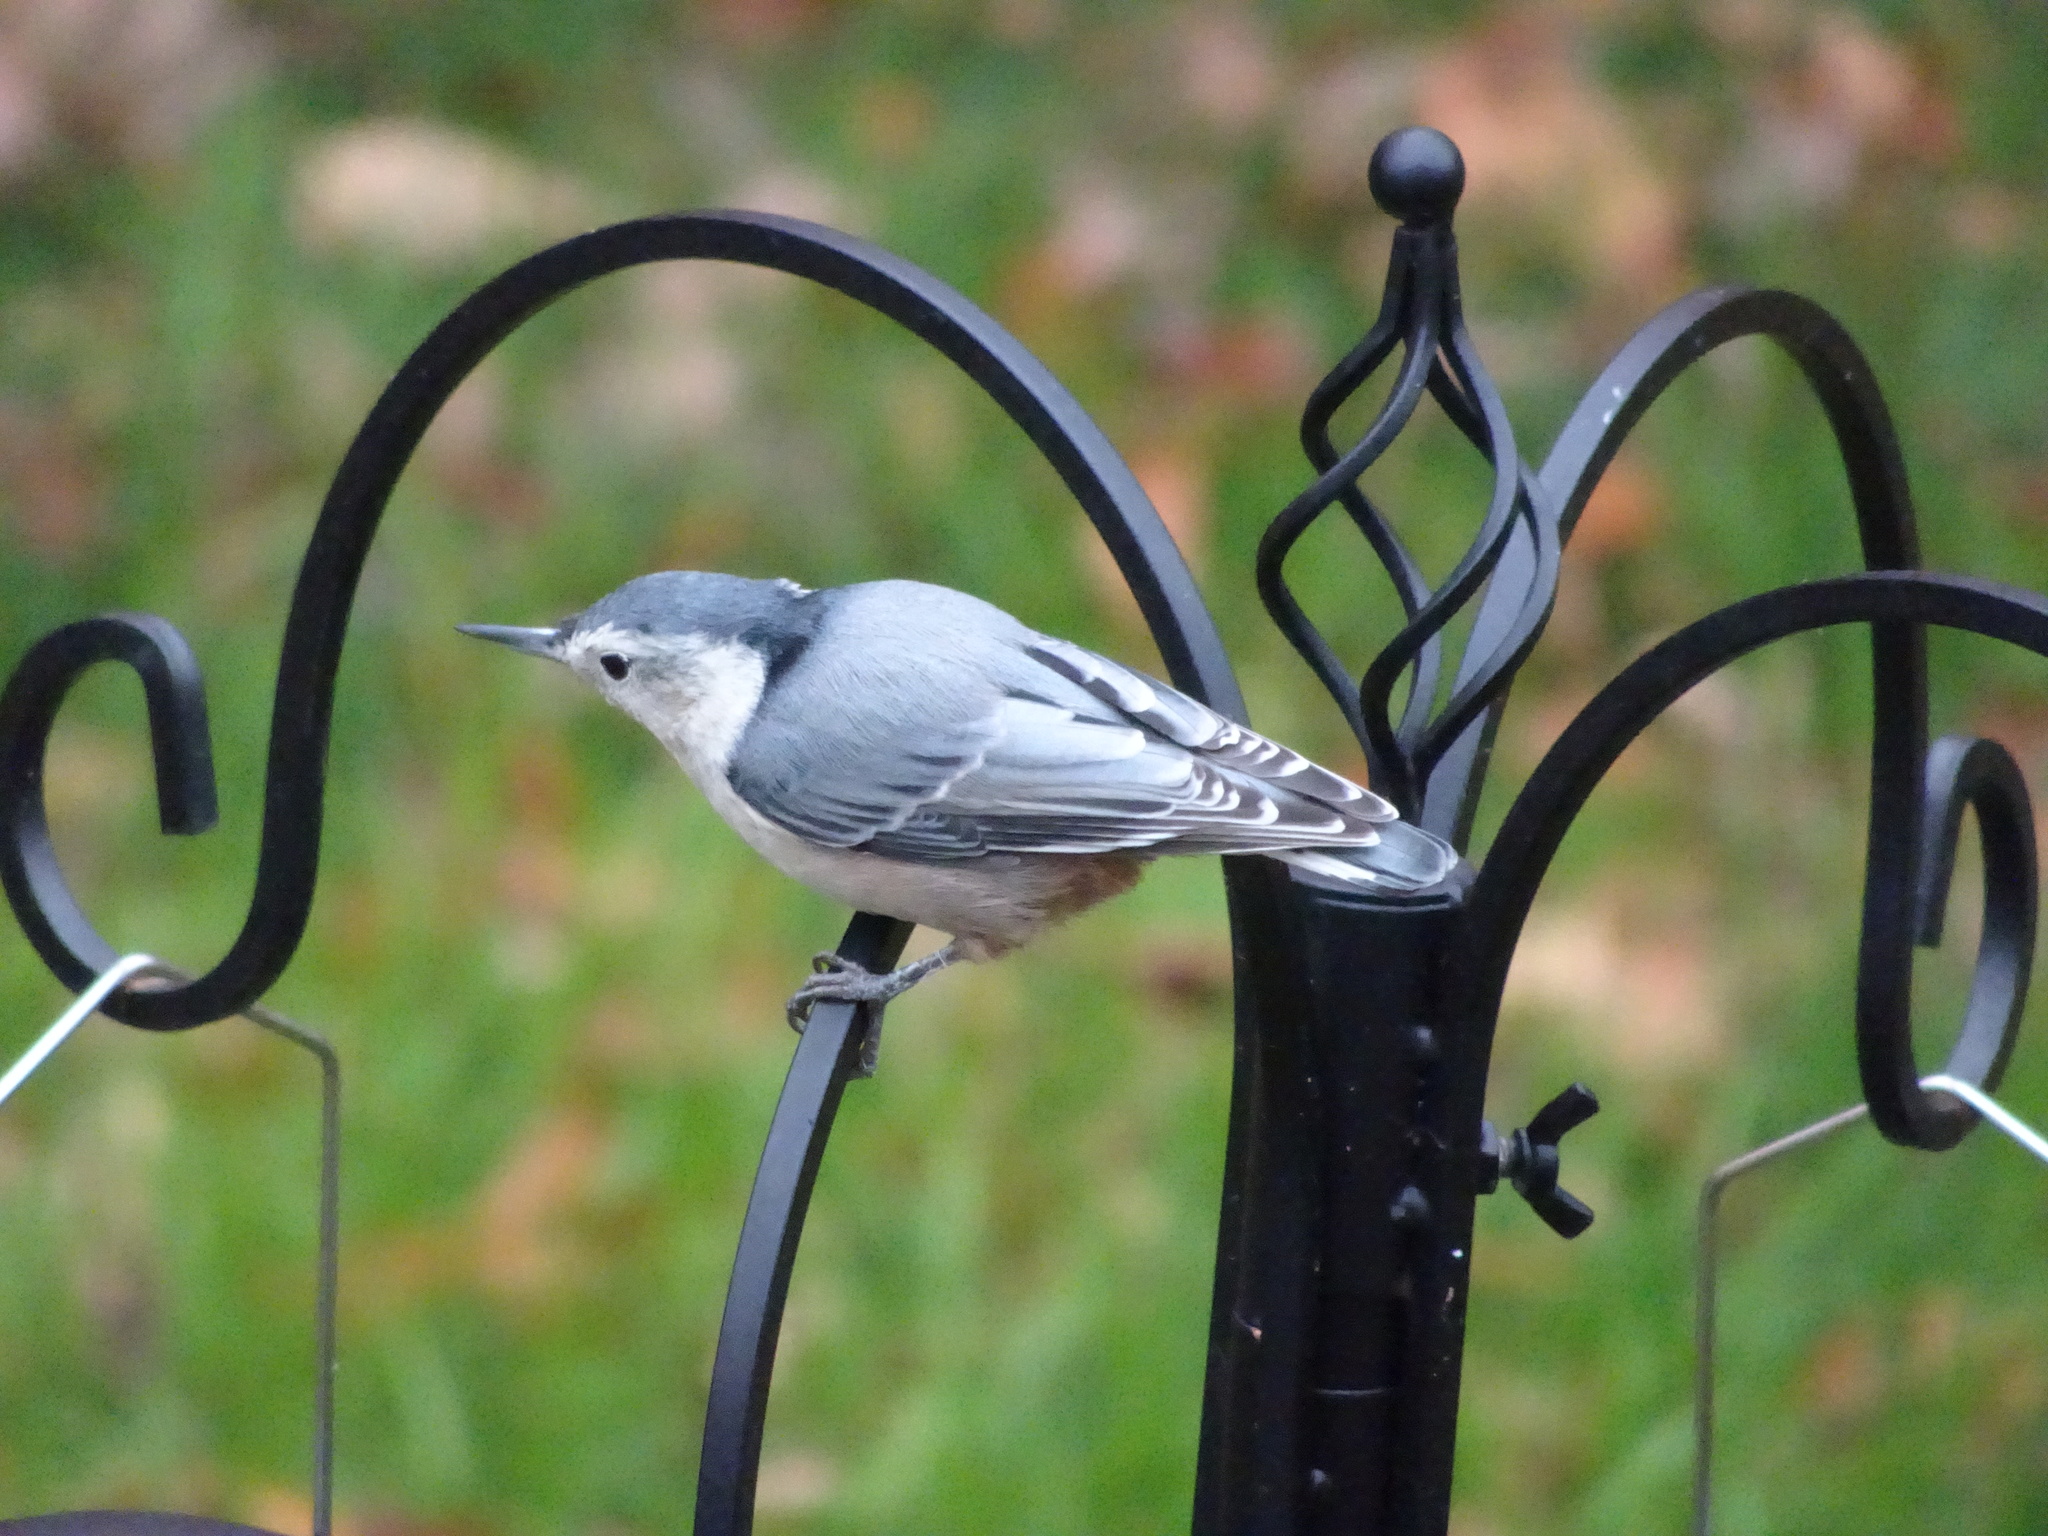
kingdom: Animalia
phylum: Chordata
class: Aves
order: Passeriformes
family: Sittidae
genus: Sitta
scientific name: Sitta carolinensis
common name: White-breasted nuthatch
